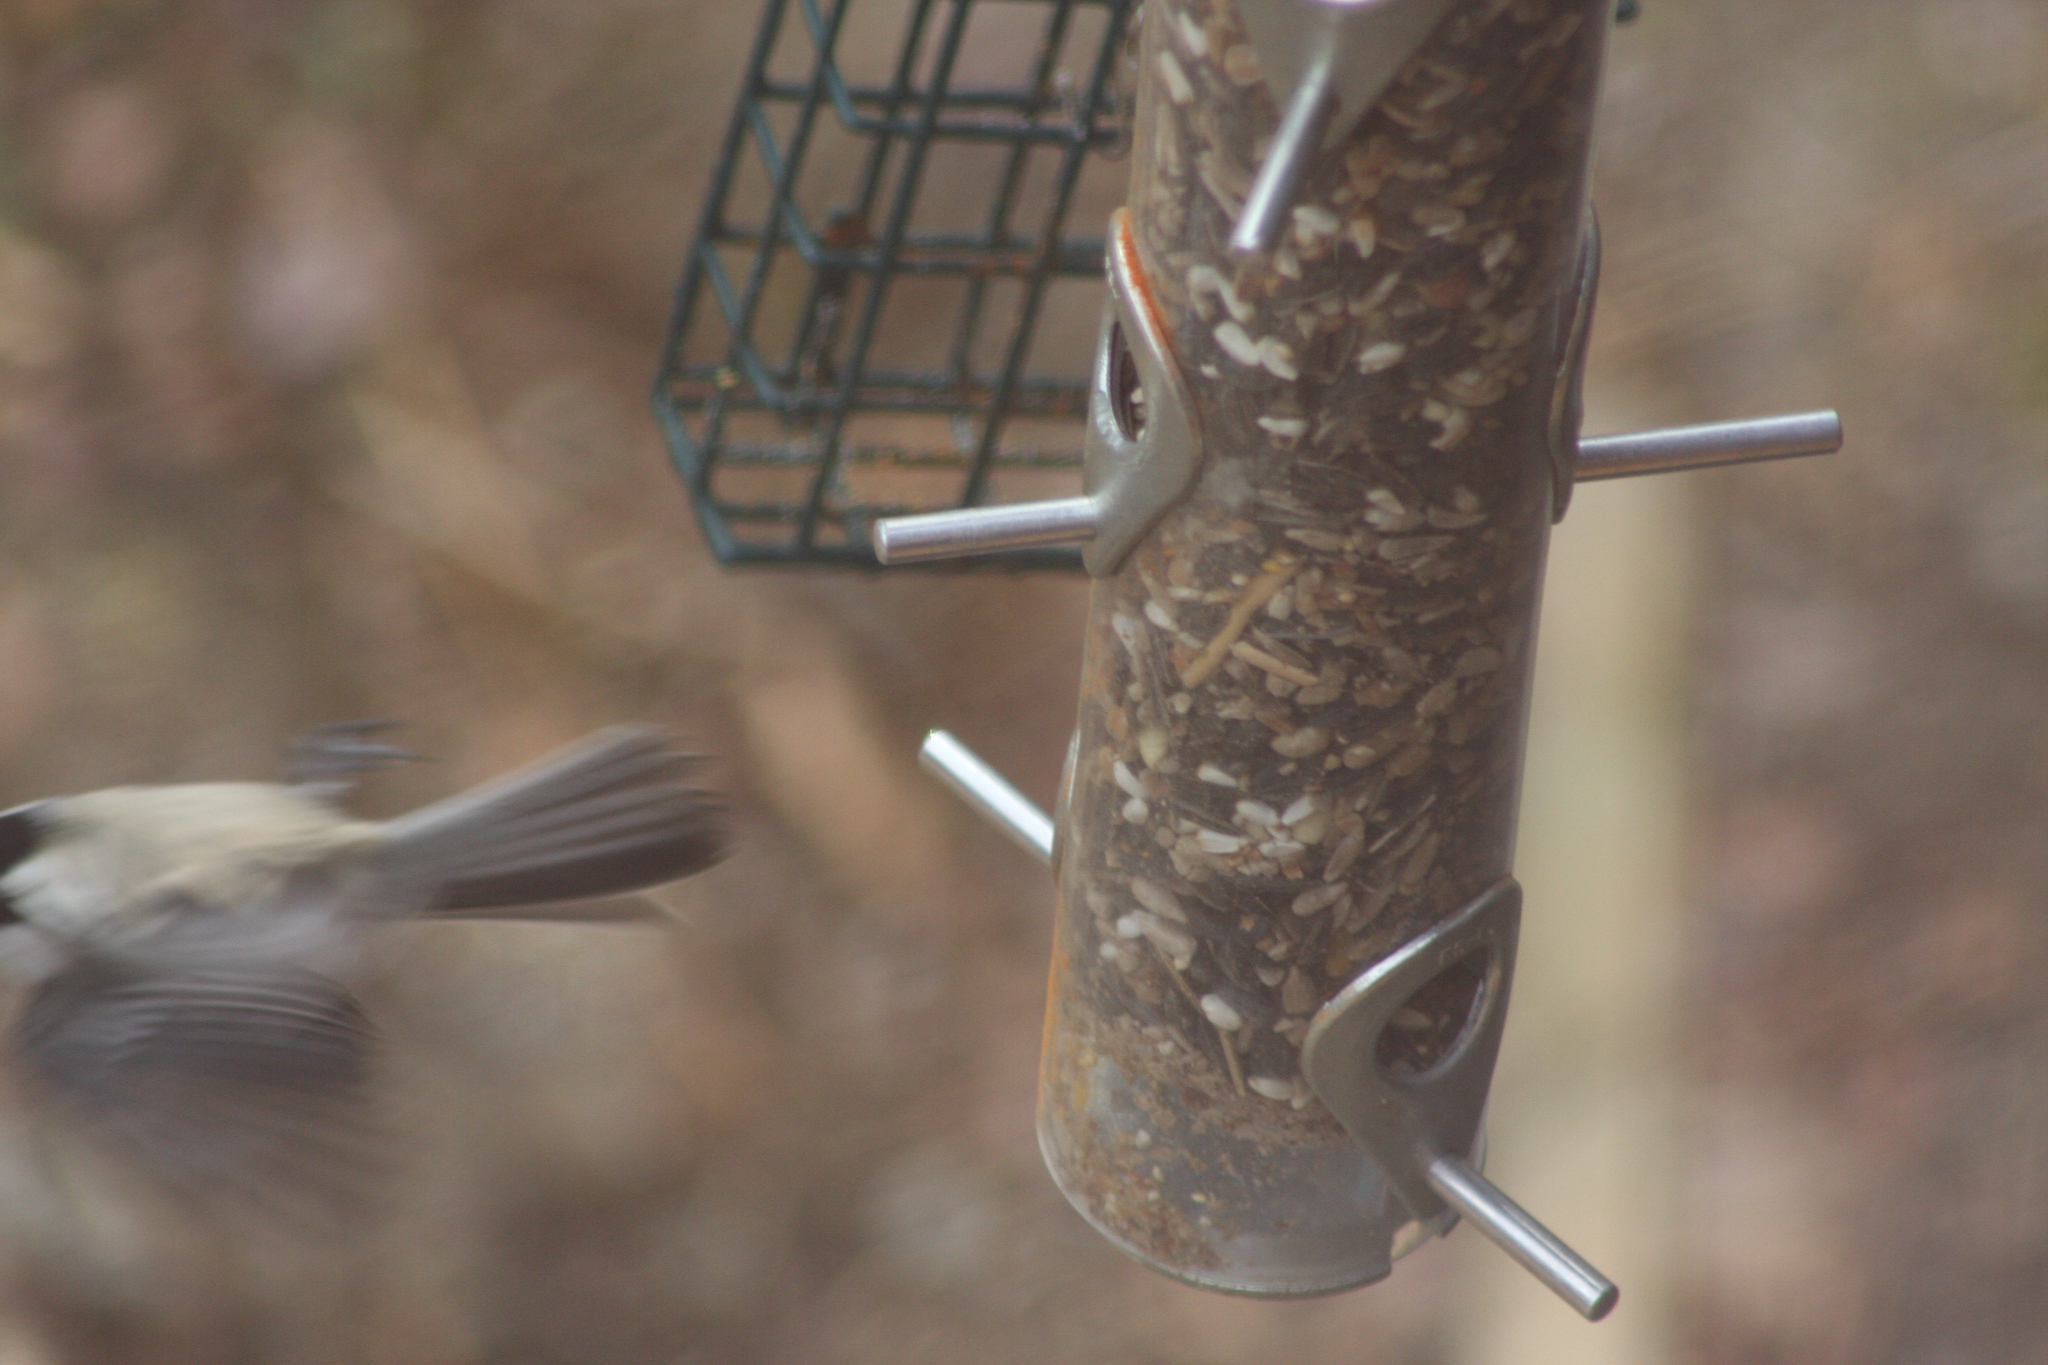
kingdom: Animalia
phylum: Chordata
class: Aves
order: Passeriformes
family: Paridae
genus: Poecile
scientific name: Poecile atricapillus
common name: Black-capped chickadee
